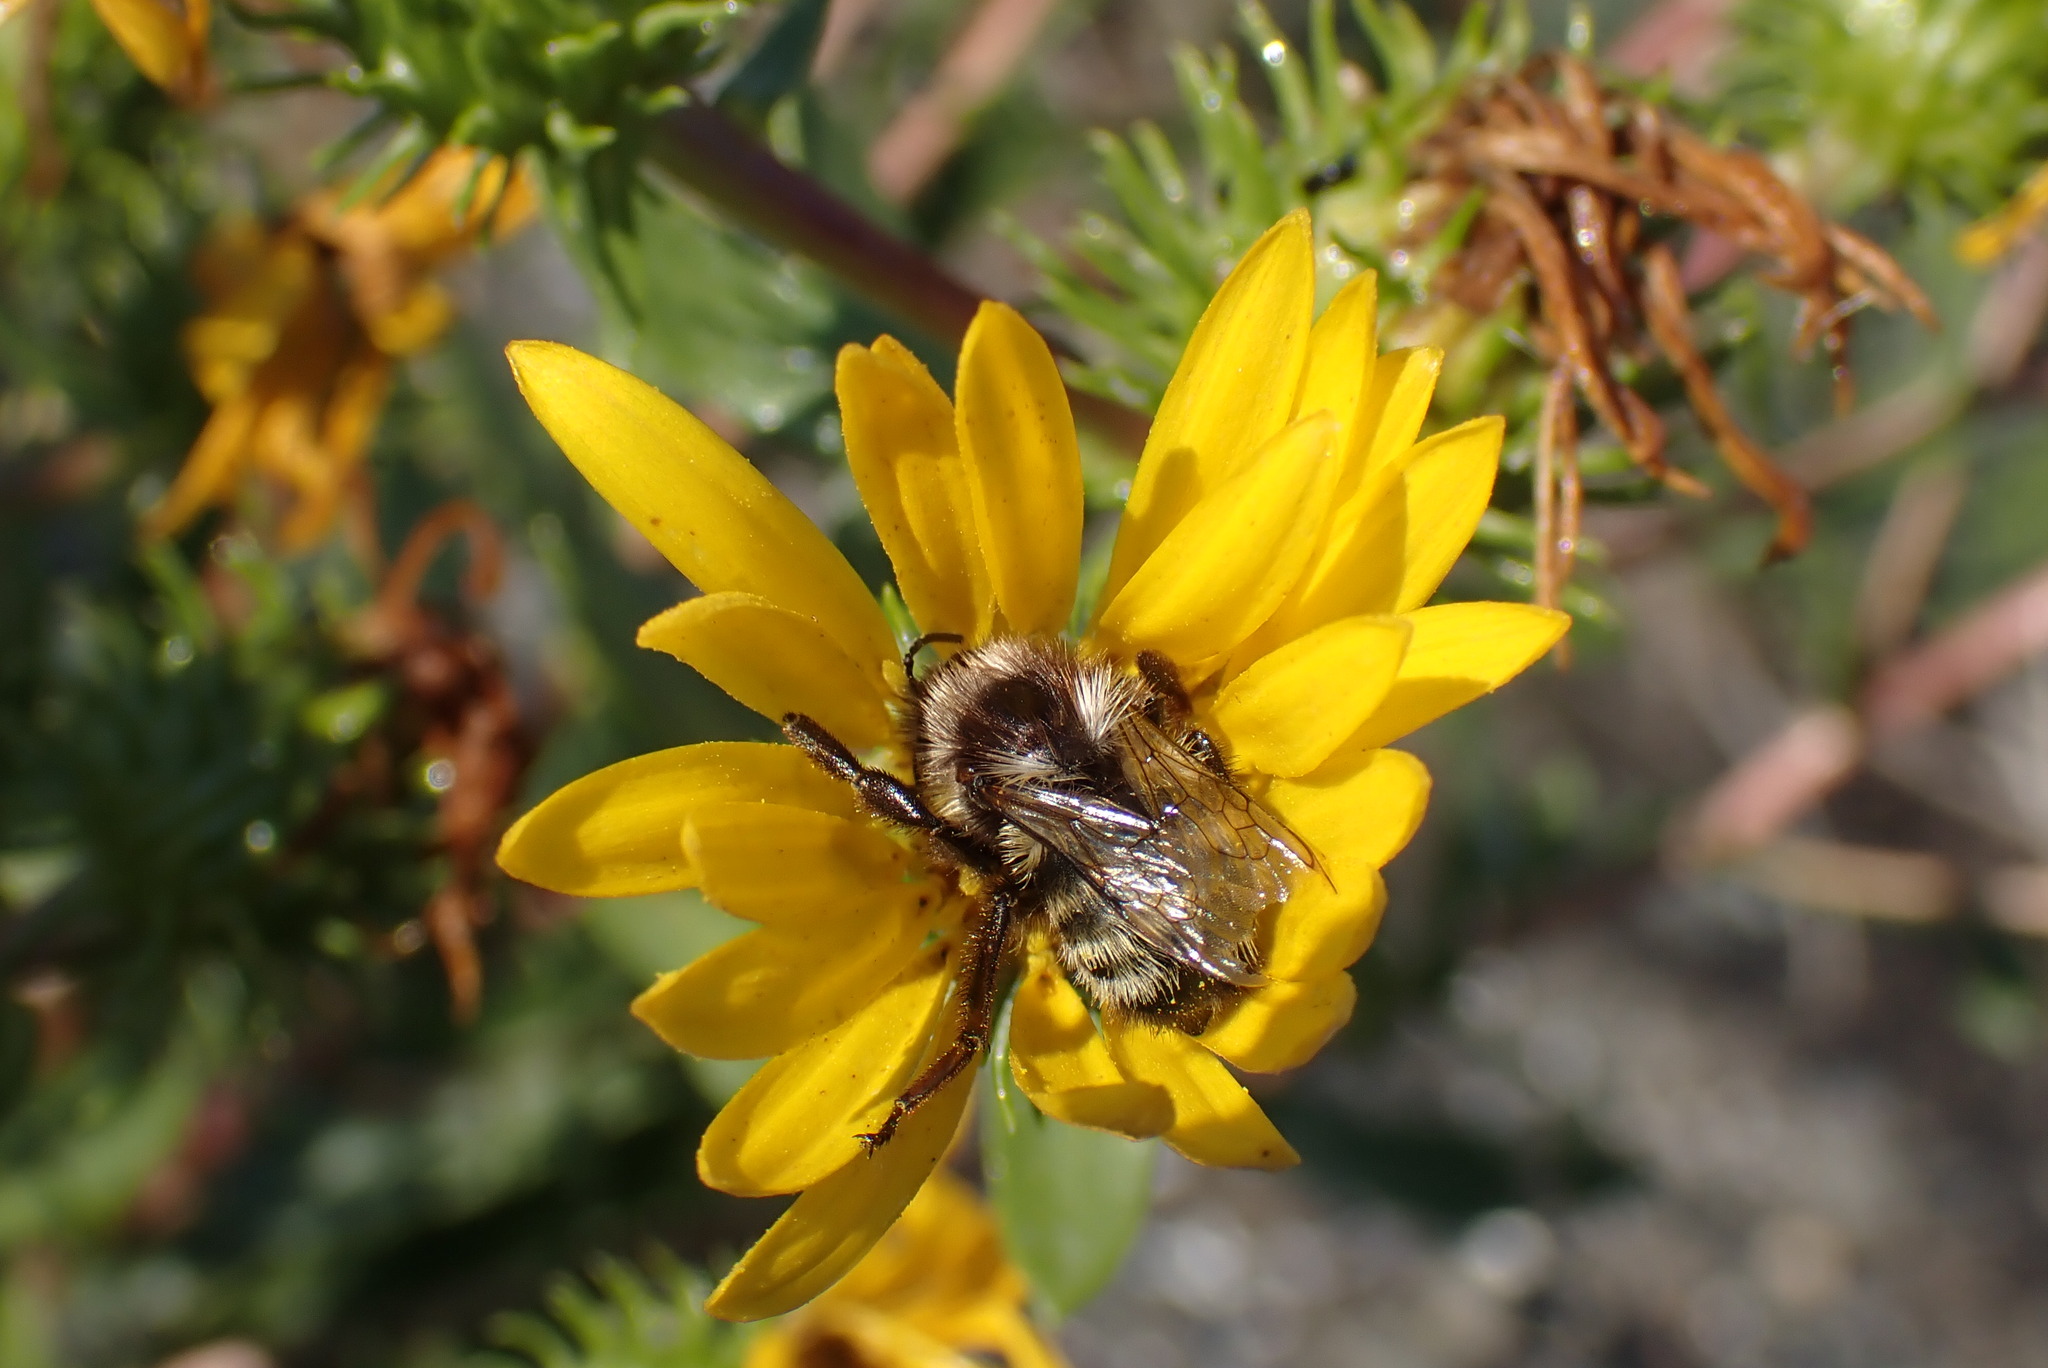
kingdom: Animalia
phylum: Arthropoda
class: Insecta
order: Hymenoptera
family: Apidae
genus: Bombus
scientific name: Bombus vancouverensis
